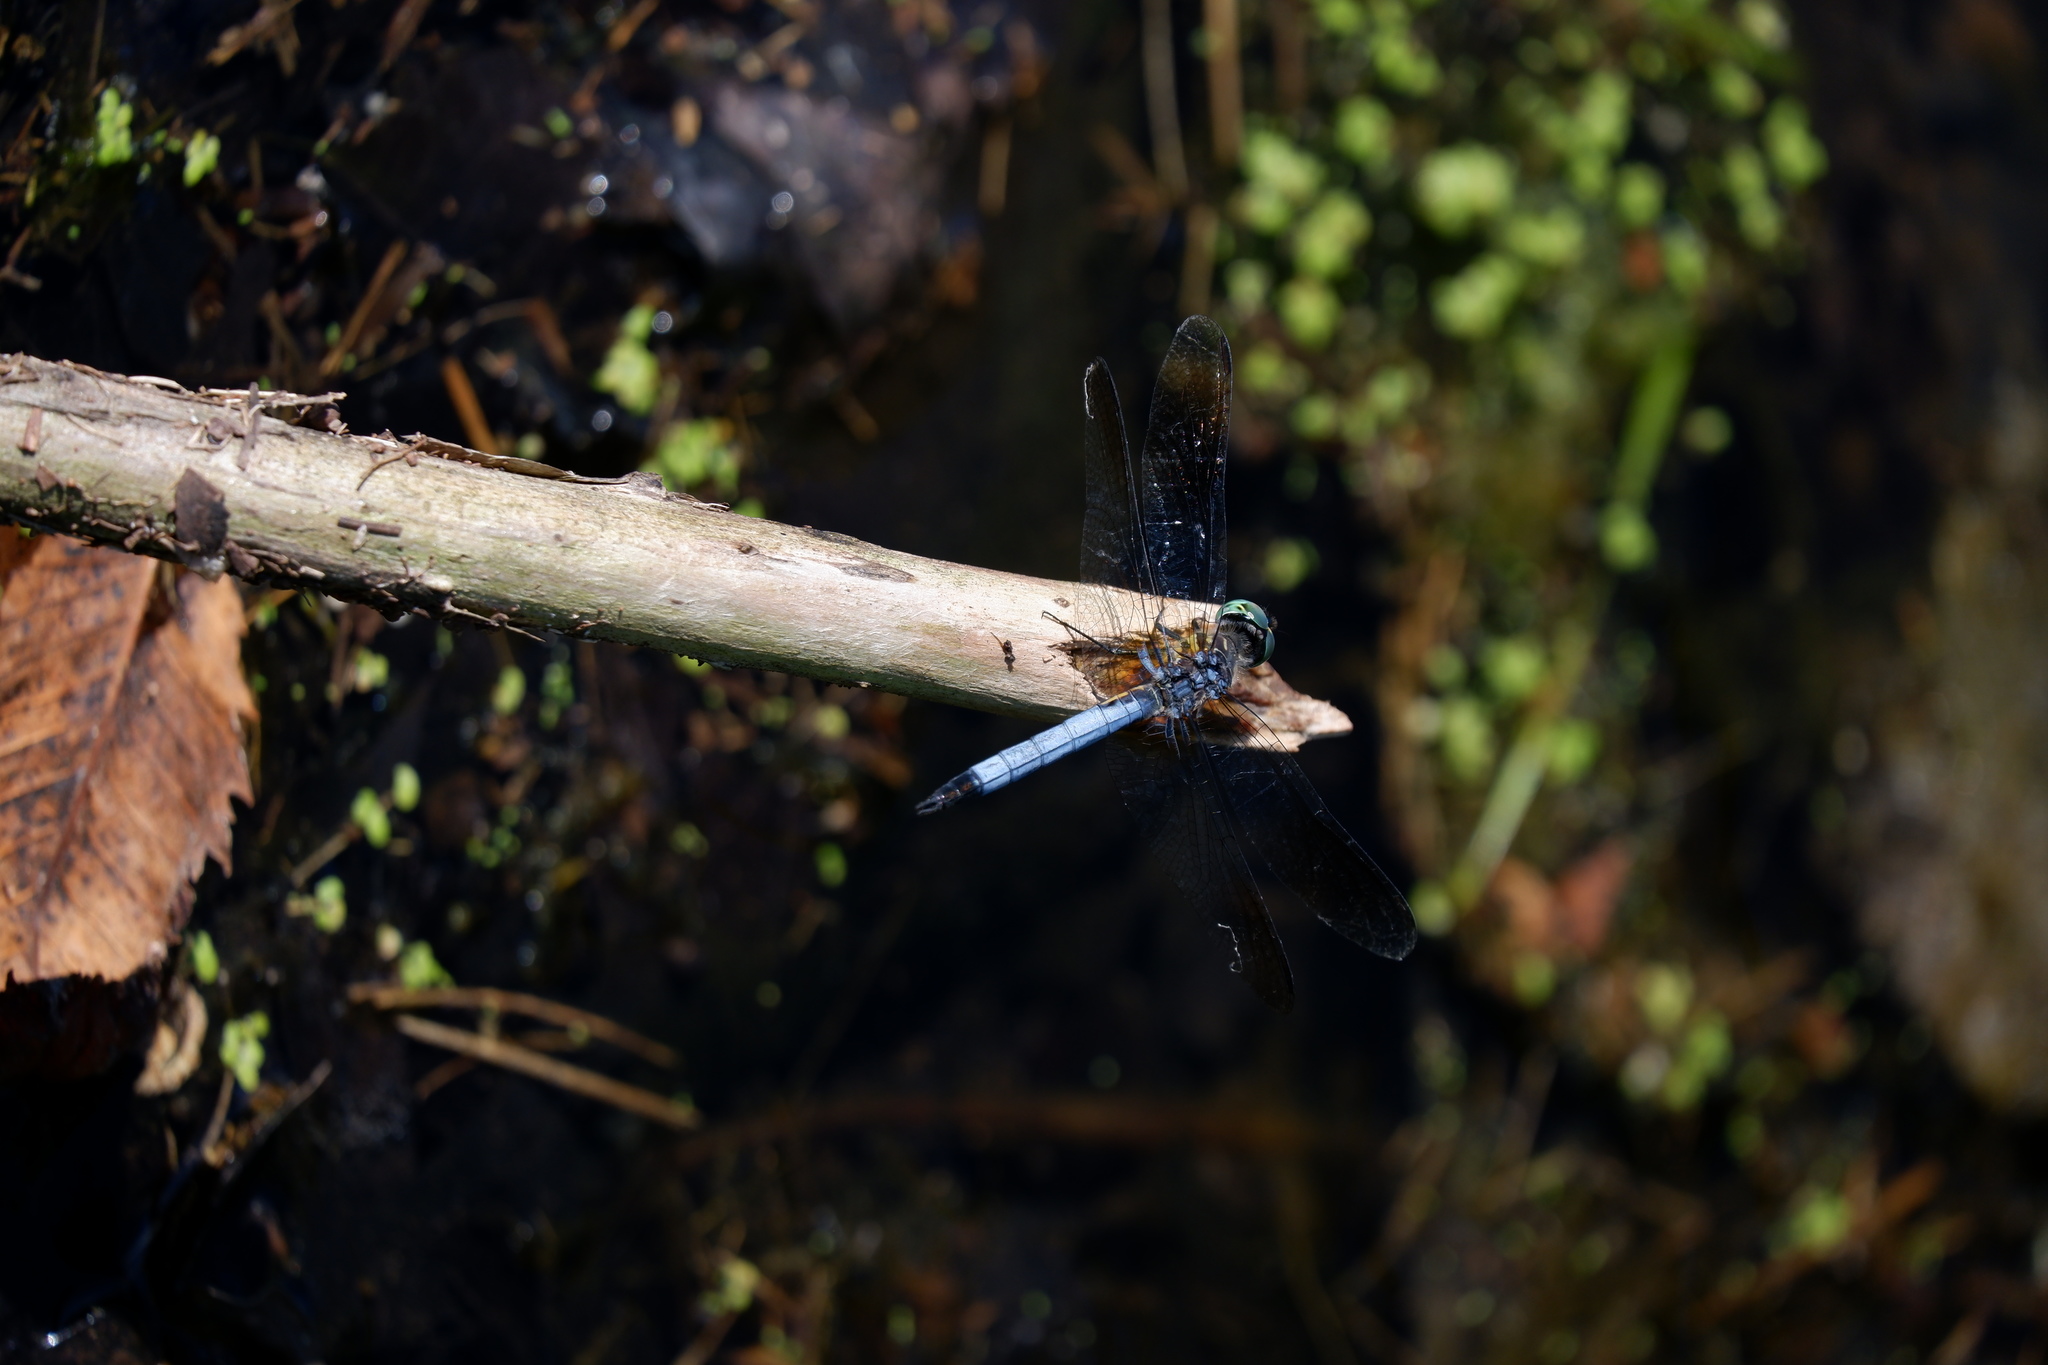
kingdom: Animalia
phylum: Arthropoda
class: Insecta
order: Odonata
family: Libellulidae
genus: Pachydiplax
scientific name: Pachydiplax longipennis
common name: Blue dasher
